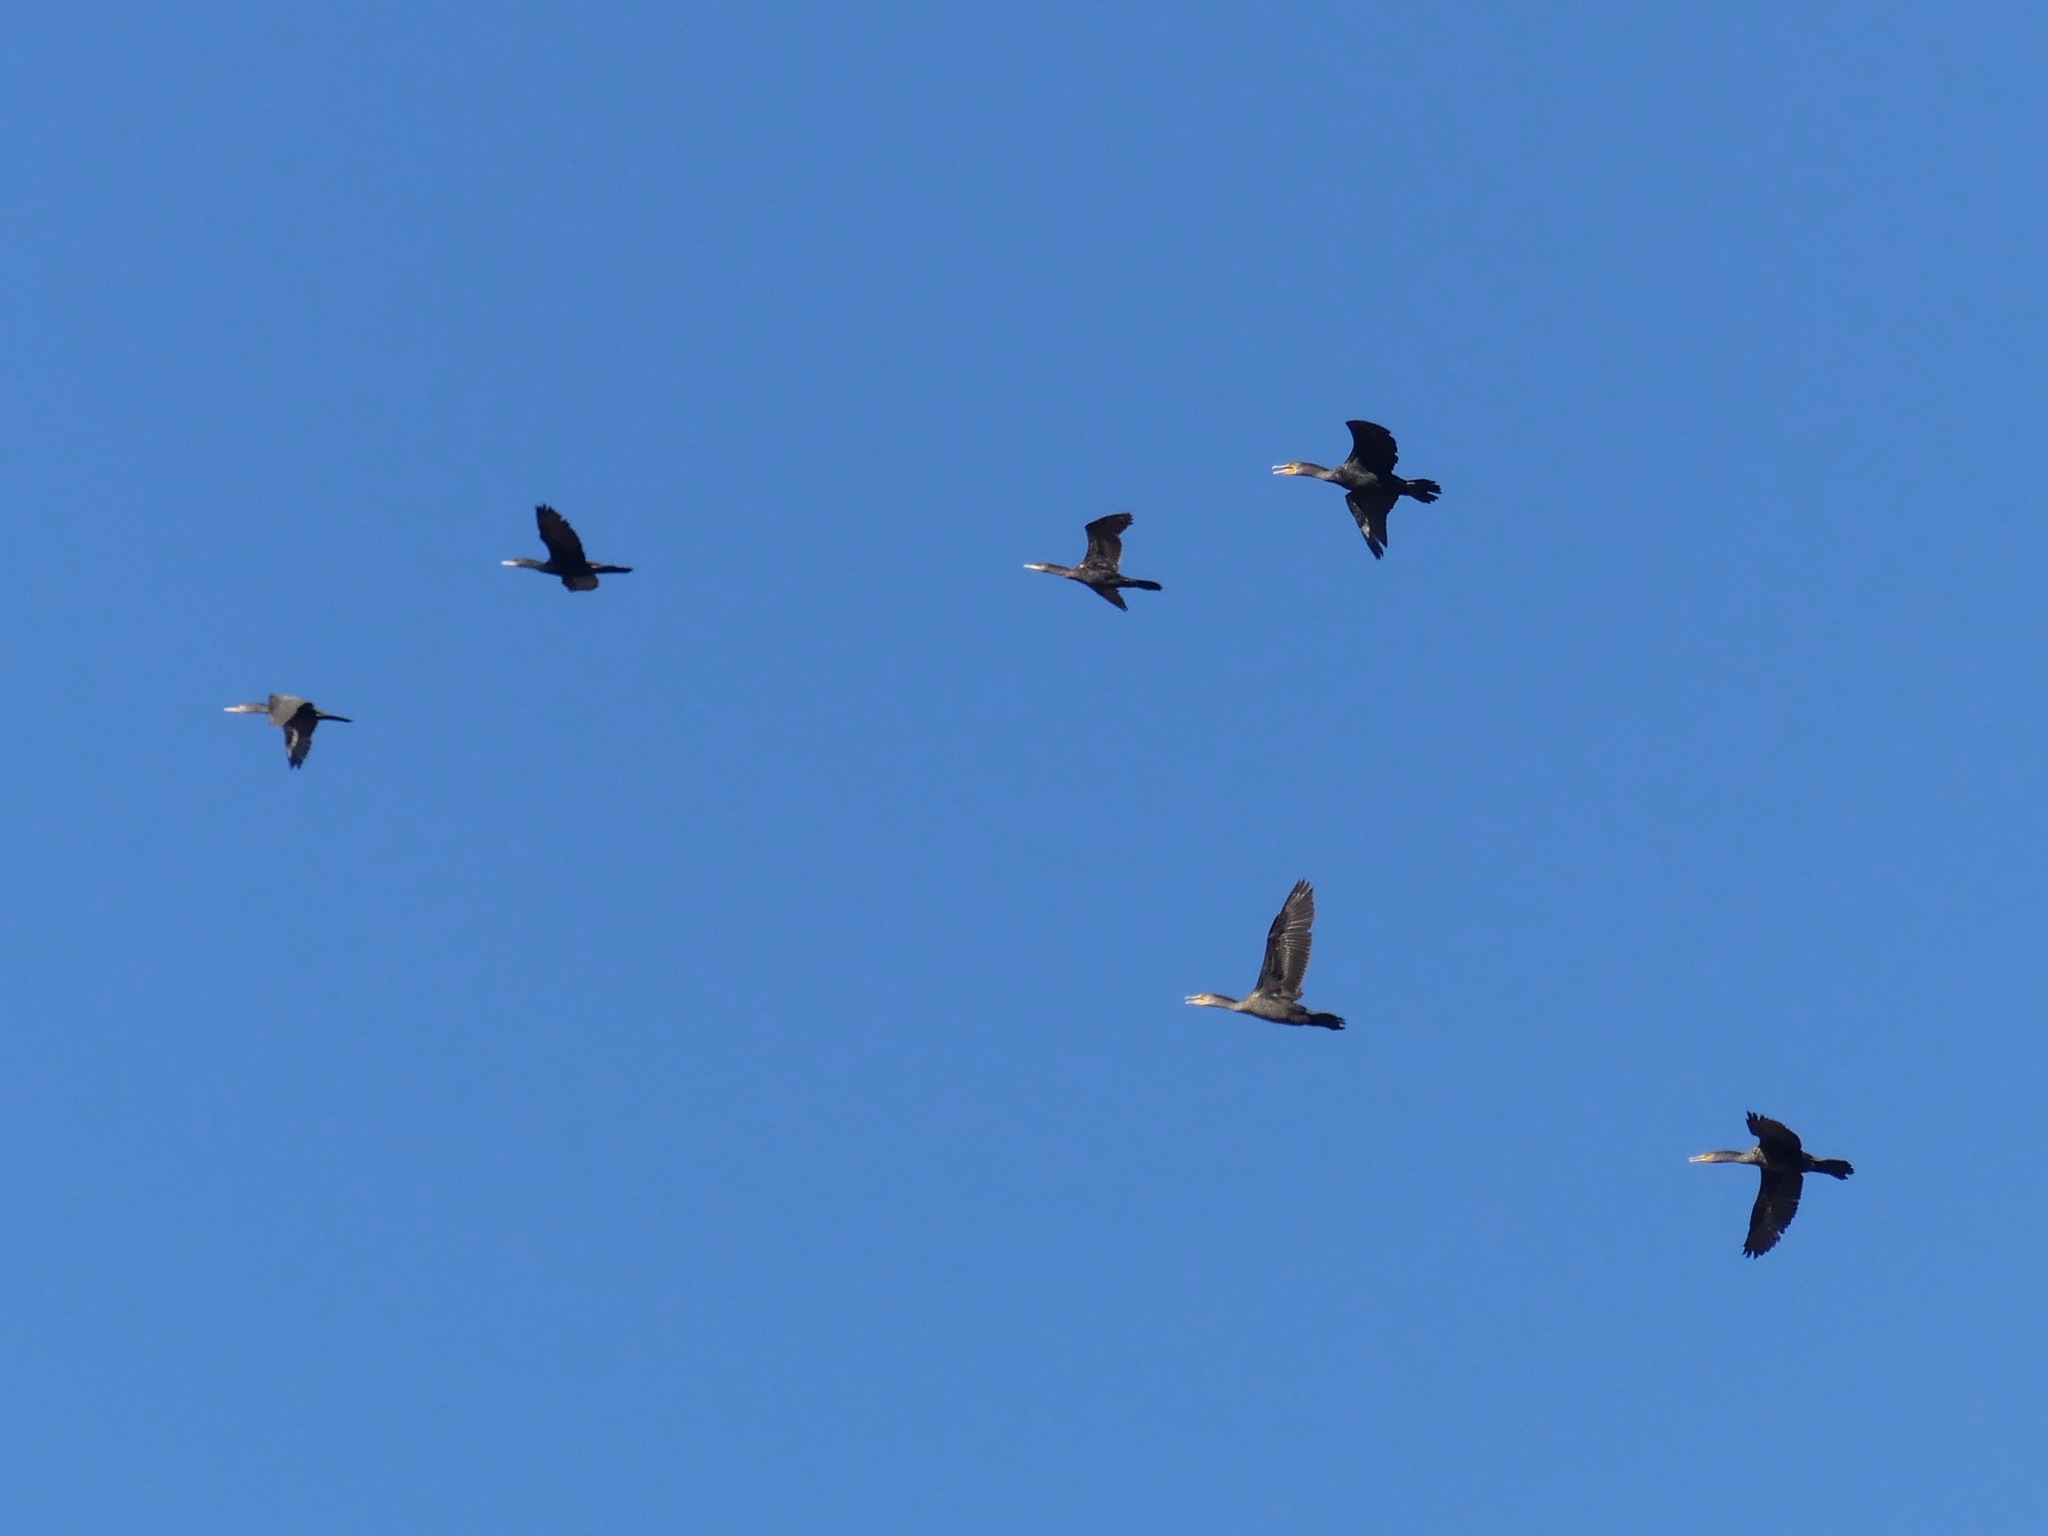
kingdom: Animalia
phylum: Chordata
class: Aves
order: Suliformes
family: Phalacrocoracidae
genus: Phalacrocorax
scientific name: Phalacrocorax brasilianus
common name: Neotropic cormorant
